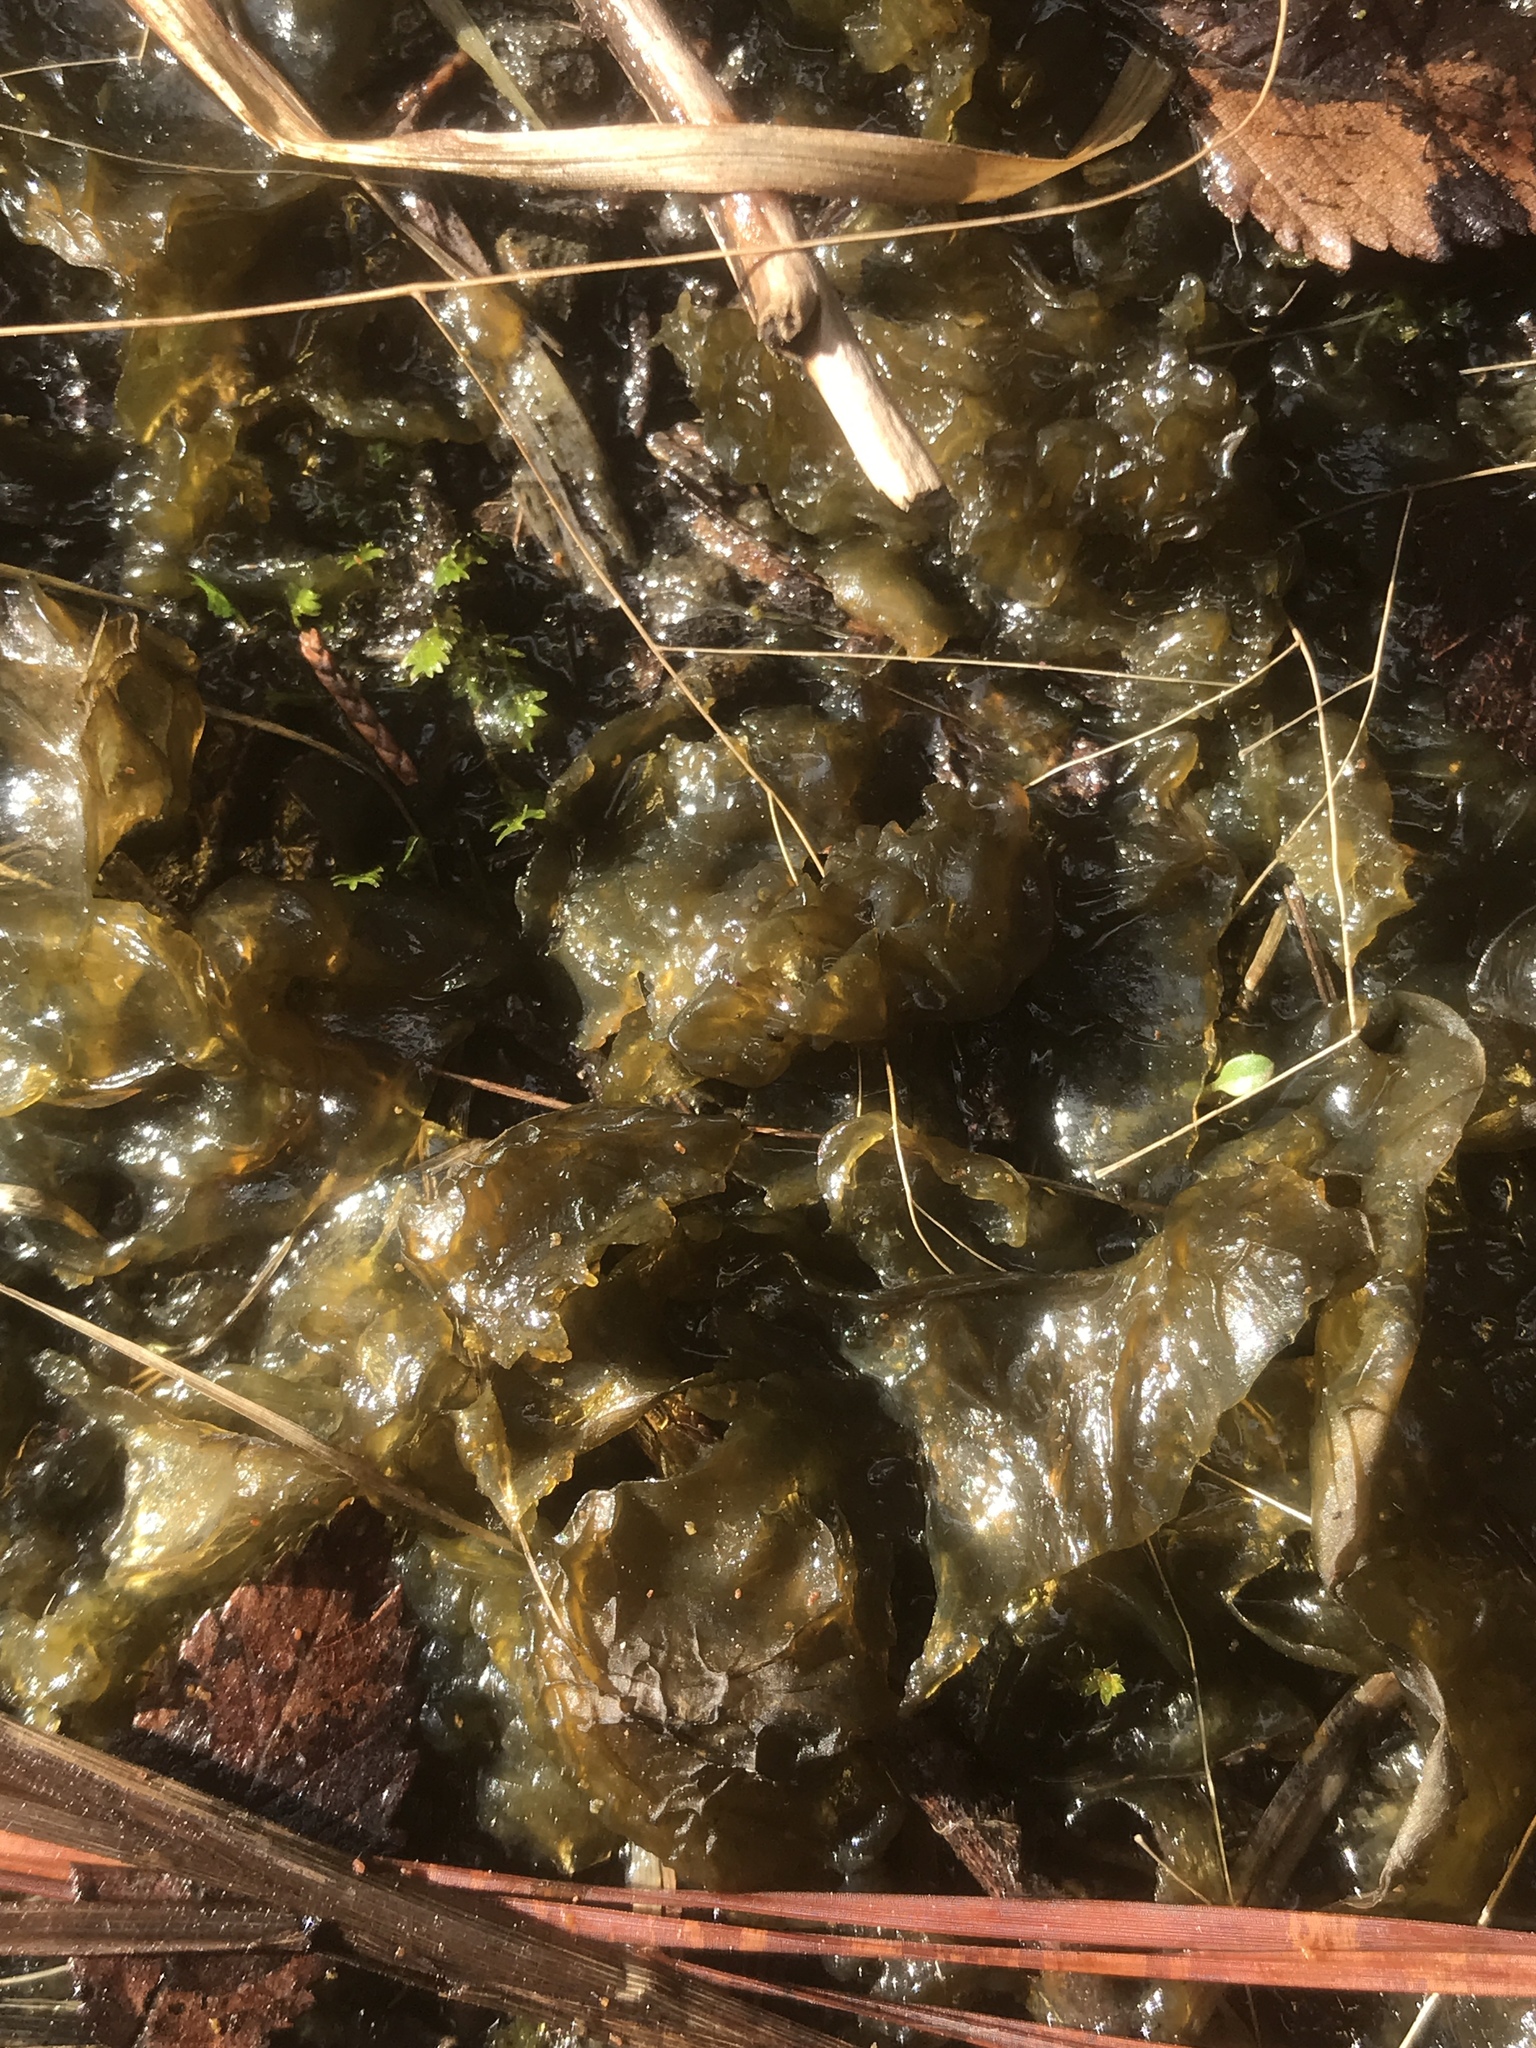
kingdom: Bacteria
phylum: Cyanobacteria
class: Cyanobacteriia
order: Cyanobacteriales
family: Nostocaceae
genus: Nostoc
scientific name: Nostoc commune
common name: Star jelly
